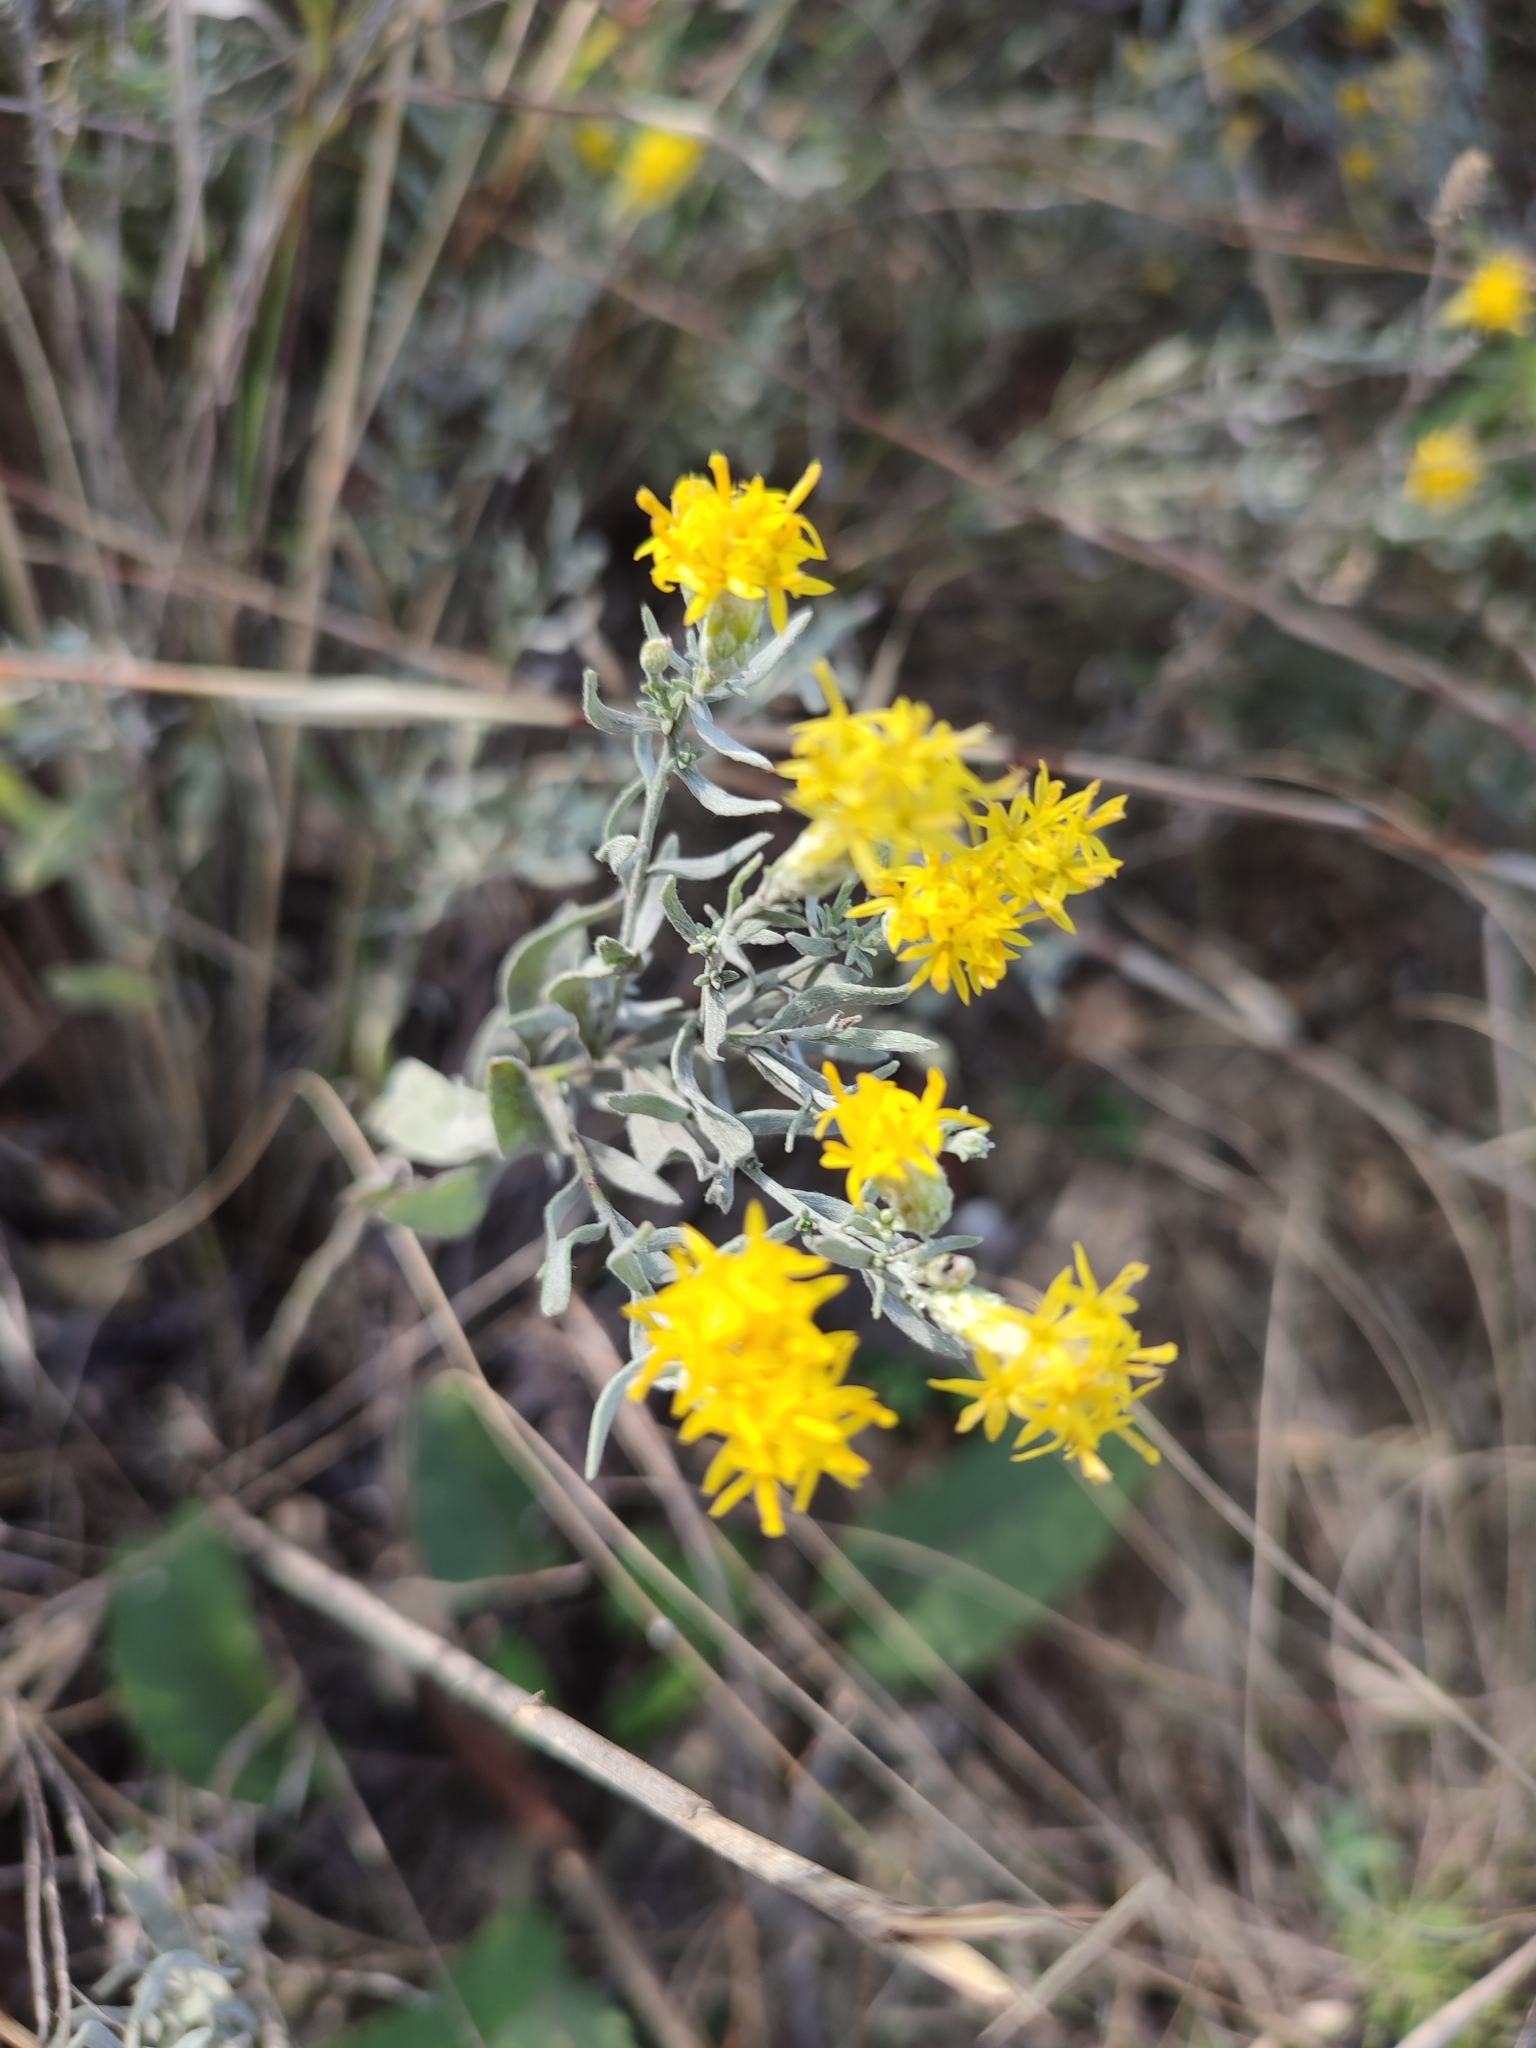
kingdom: Plantae
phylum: Tracheophyta
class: Magnoliopsida
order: Asterales
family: Asteraceae
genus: Galatella
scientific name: Galatella villosa
